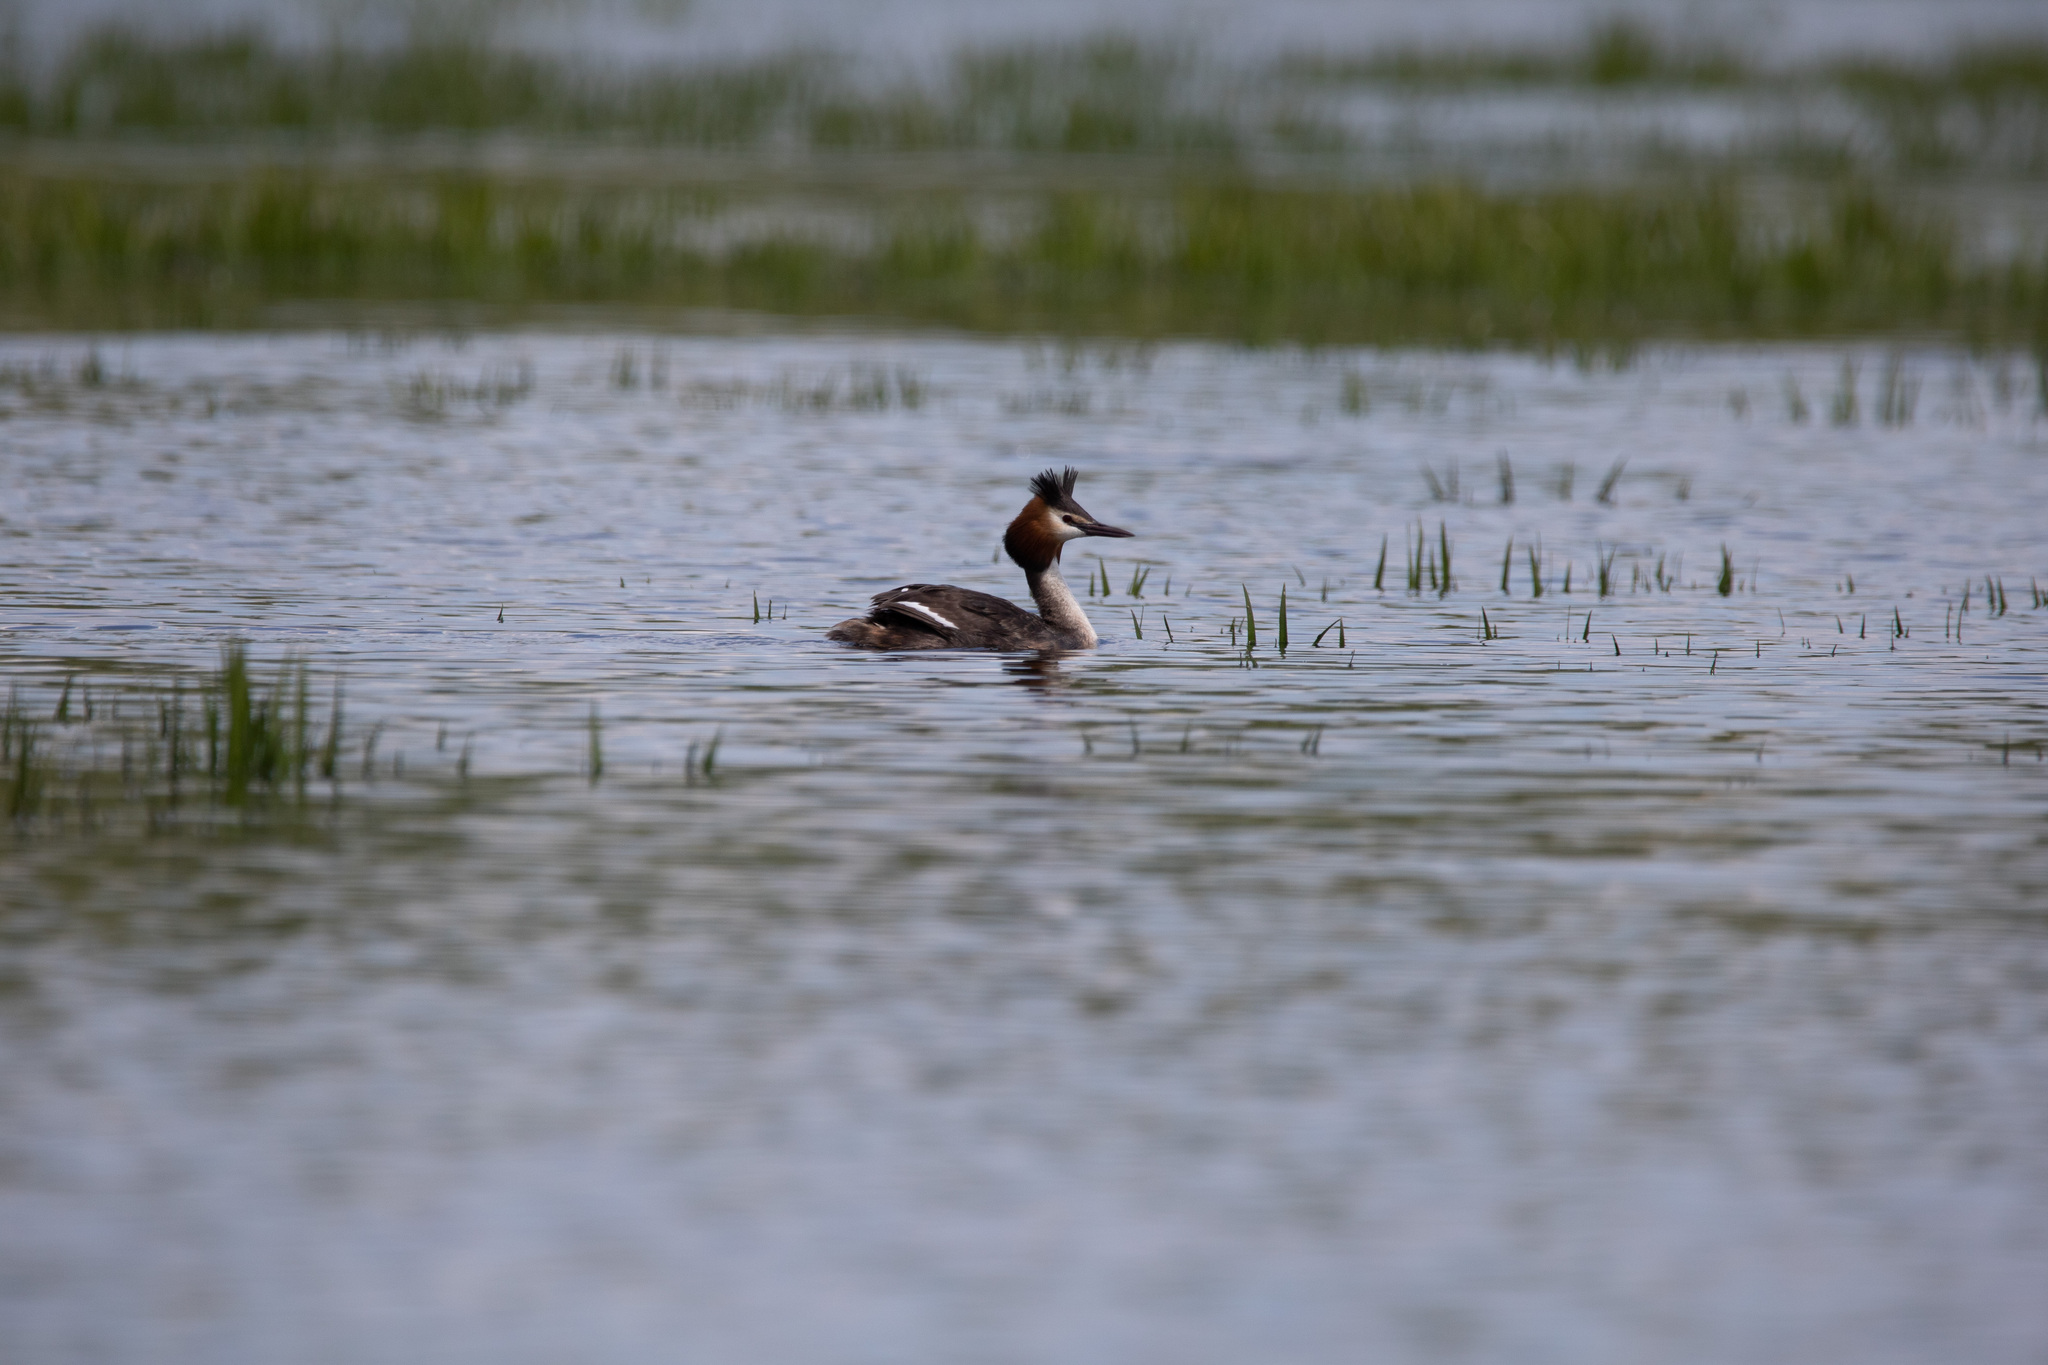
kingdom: Animalia
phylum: Chordata
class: Aves
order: Podicipediformes
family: Podicipedidae
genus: Podiceps
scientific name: Podiceps cristatus
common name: Great crested grebe
